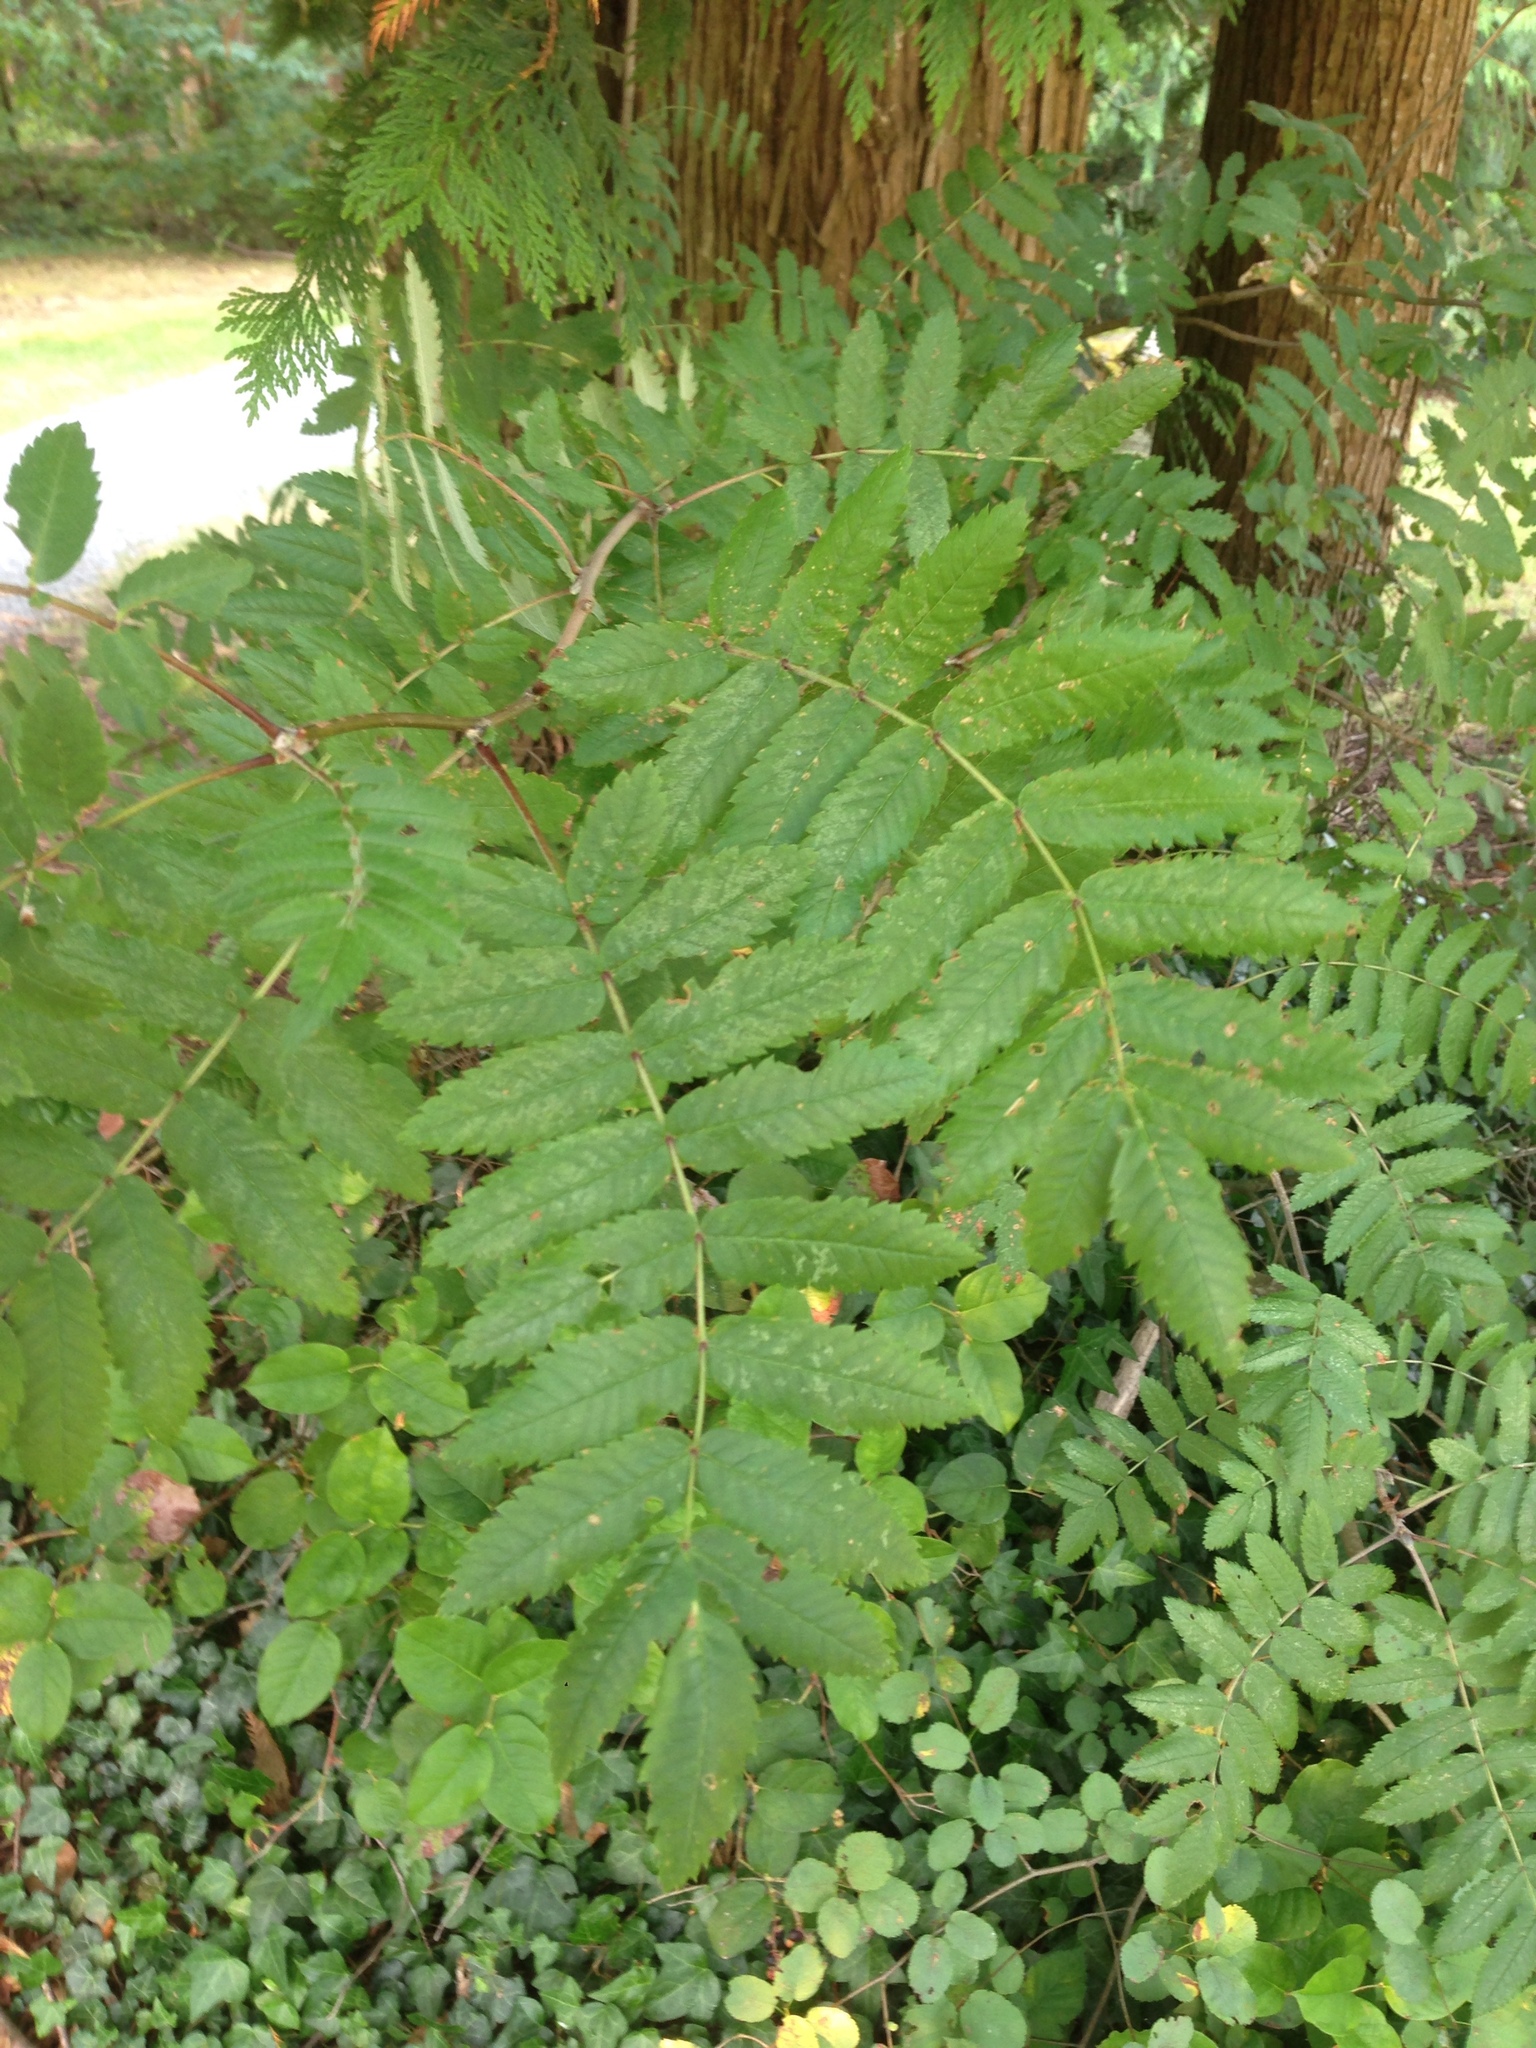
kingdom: Plantae
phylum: Tracheophyta
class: Magnoliopsida
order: Rosales
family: Rosaceae
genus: Sorbus
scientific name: Sorbus aucuparia
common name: Rowan
